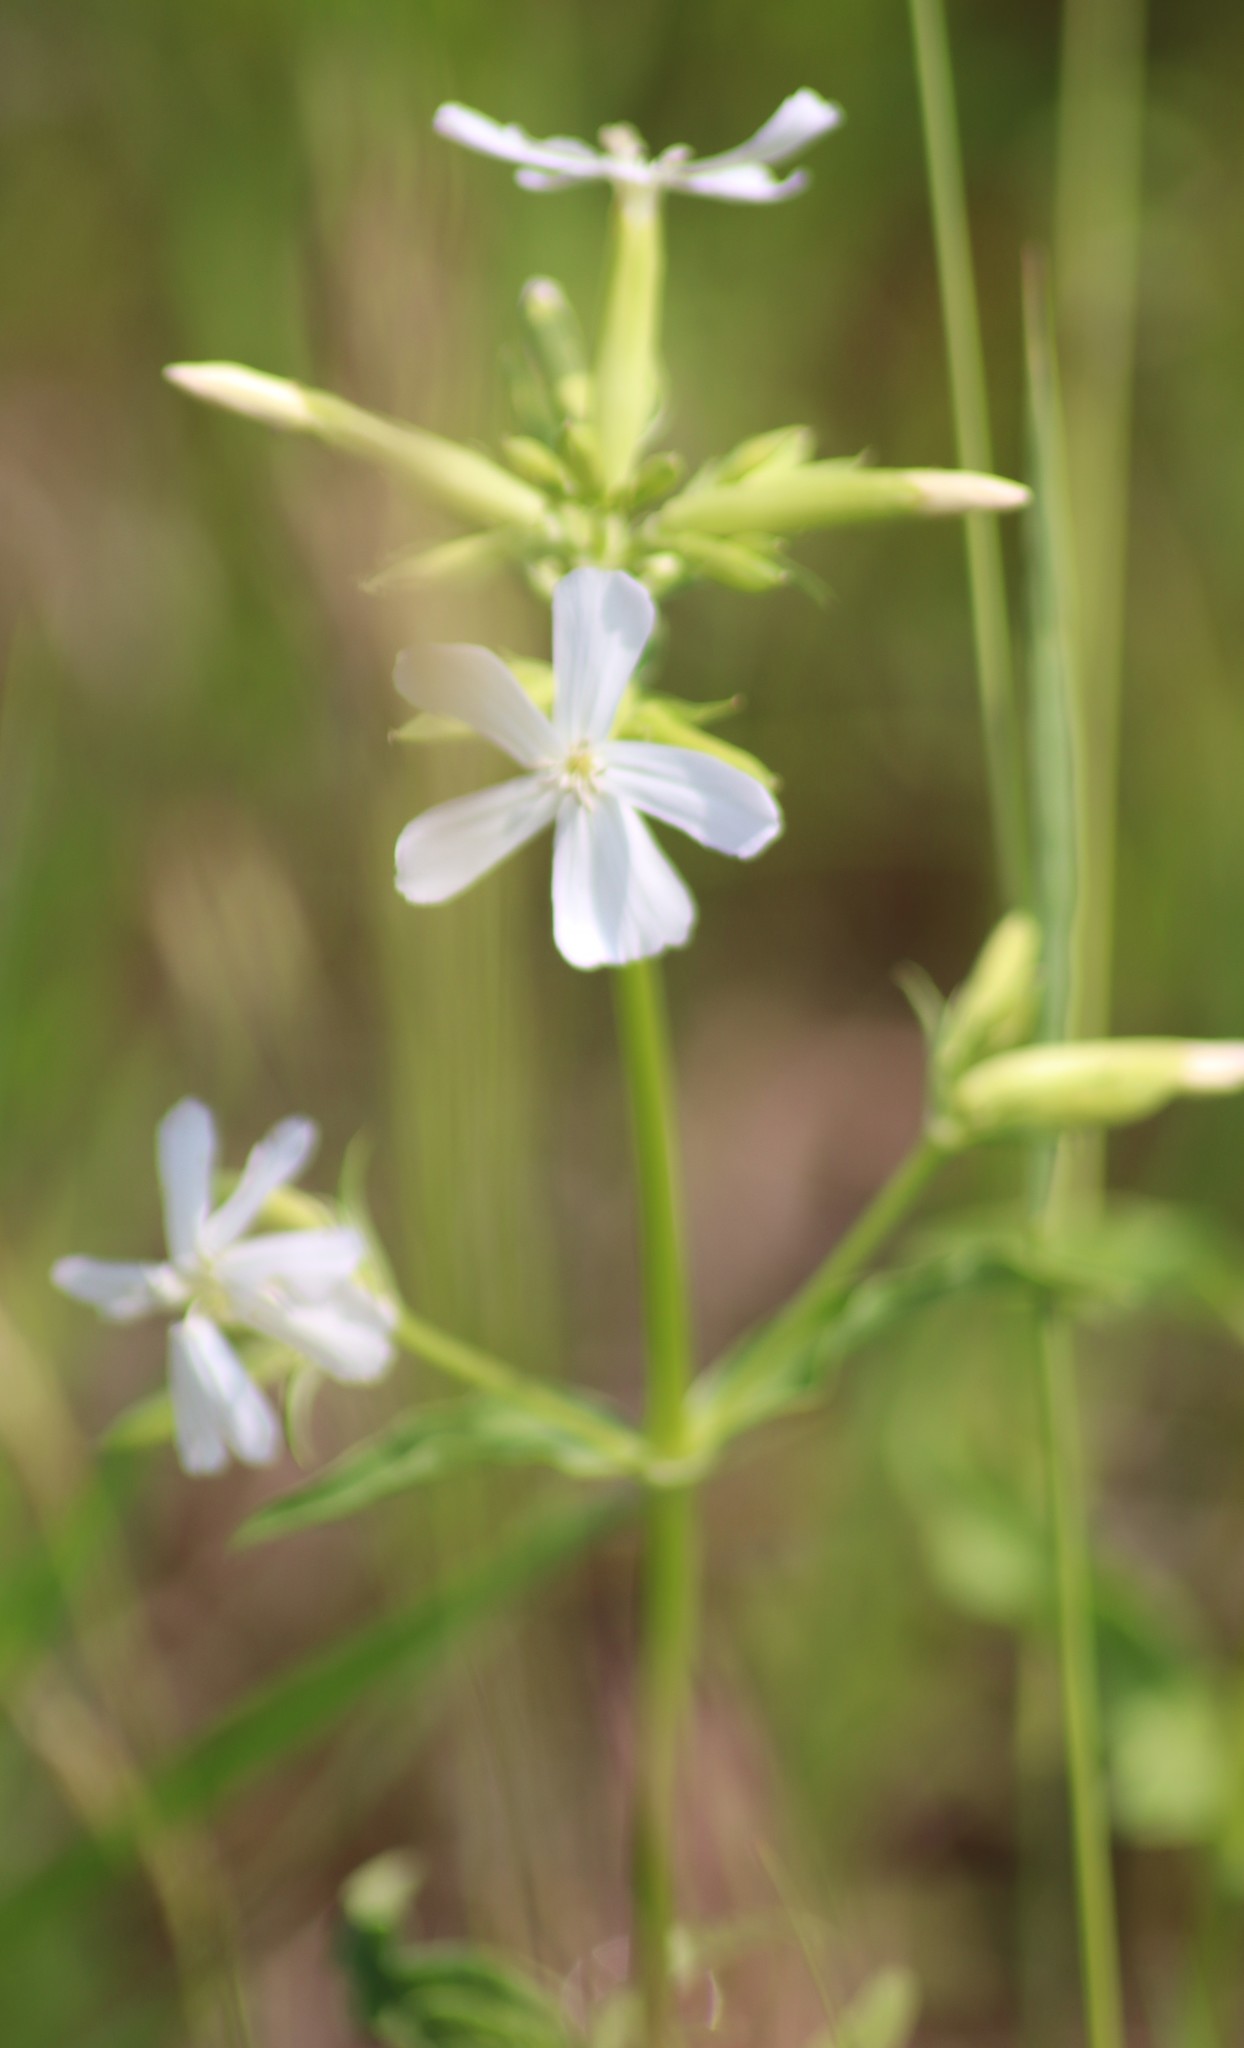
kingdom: Plantae
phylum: Tracheophyta
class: Magnoliopsida
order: Caryophyllales
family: Caryophyllaceae
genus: Saponaria
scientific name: Saponaria officinalis
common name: Soapwort
